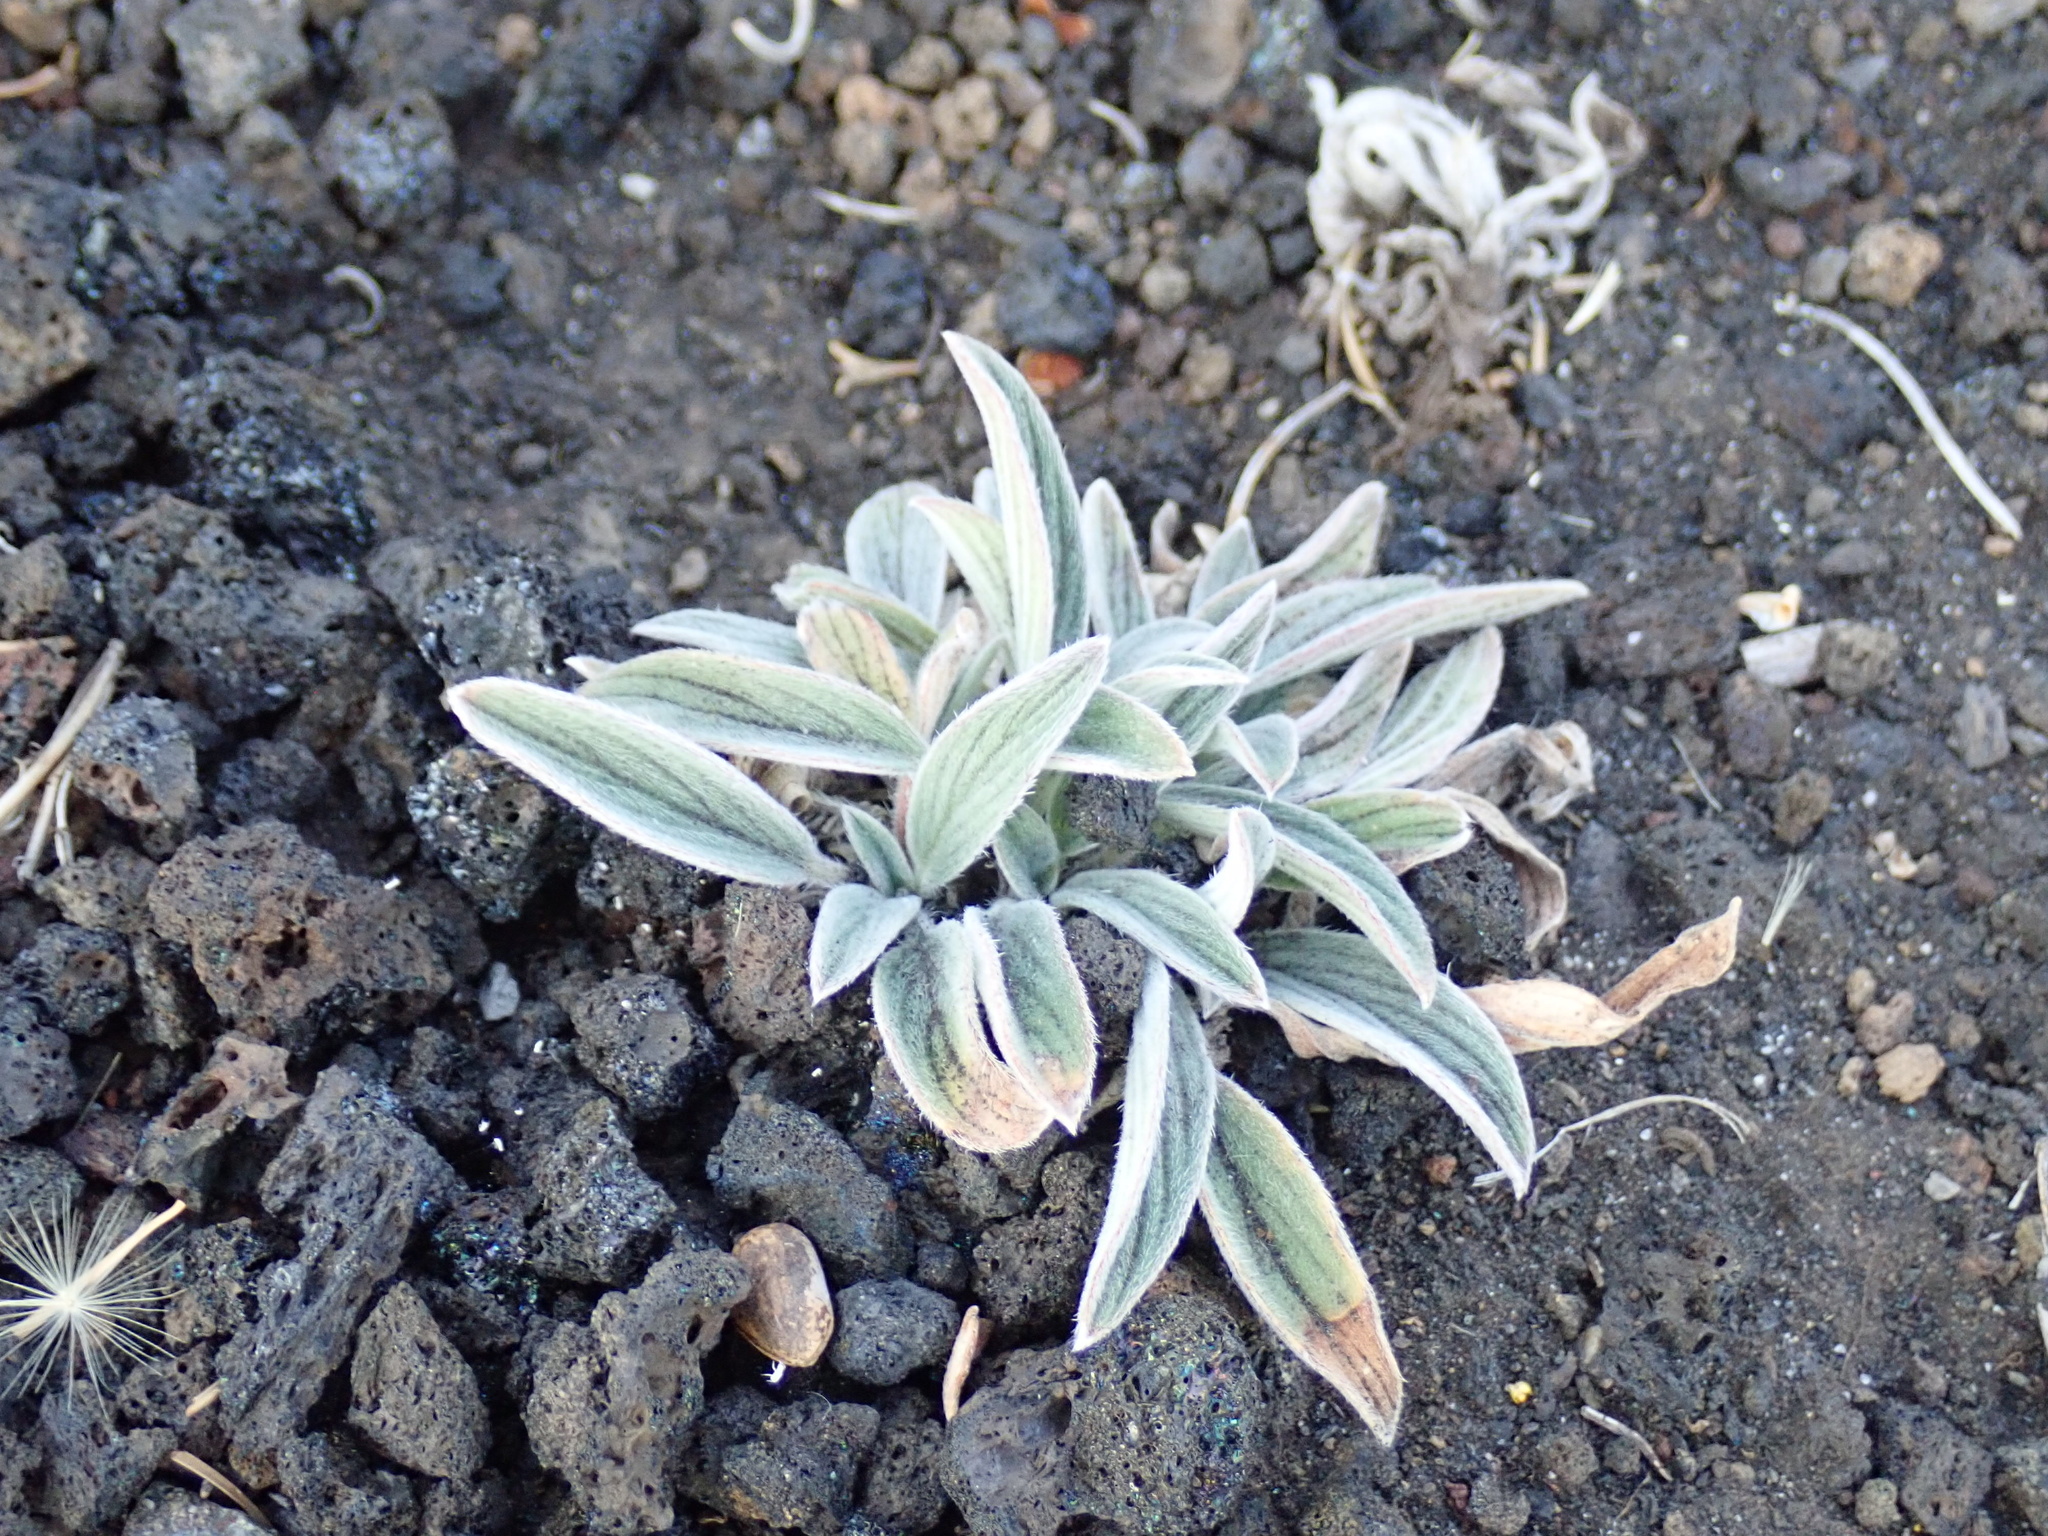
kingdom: Plantae
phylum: Tracheophyta
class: Magnoliopsida
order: Boraginales
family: Hydrophyllaceae
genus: Phacelia
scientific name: Phacelia hastata
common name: Silver-leaved phacelia
